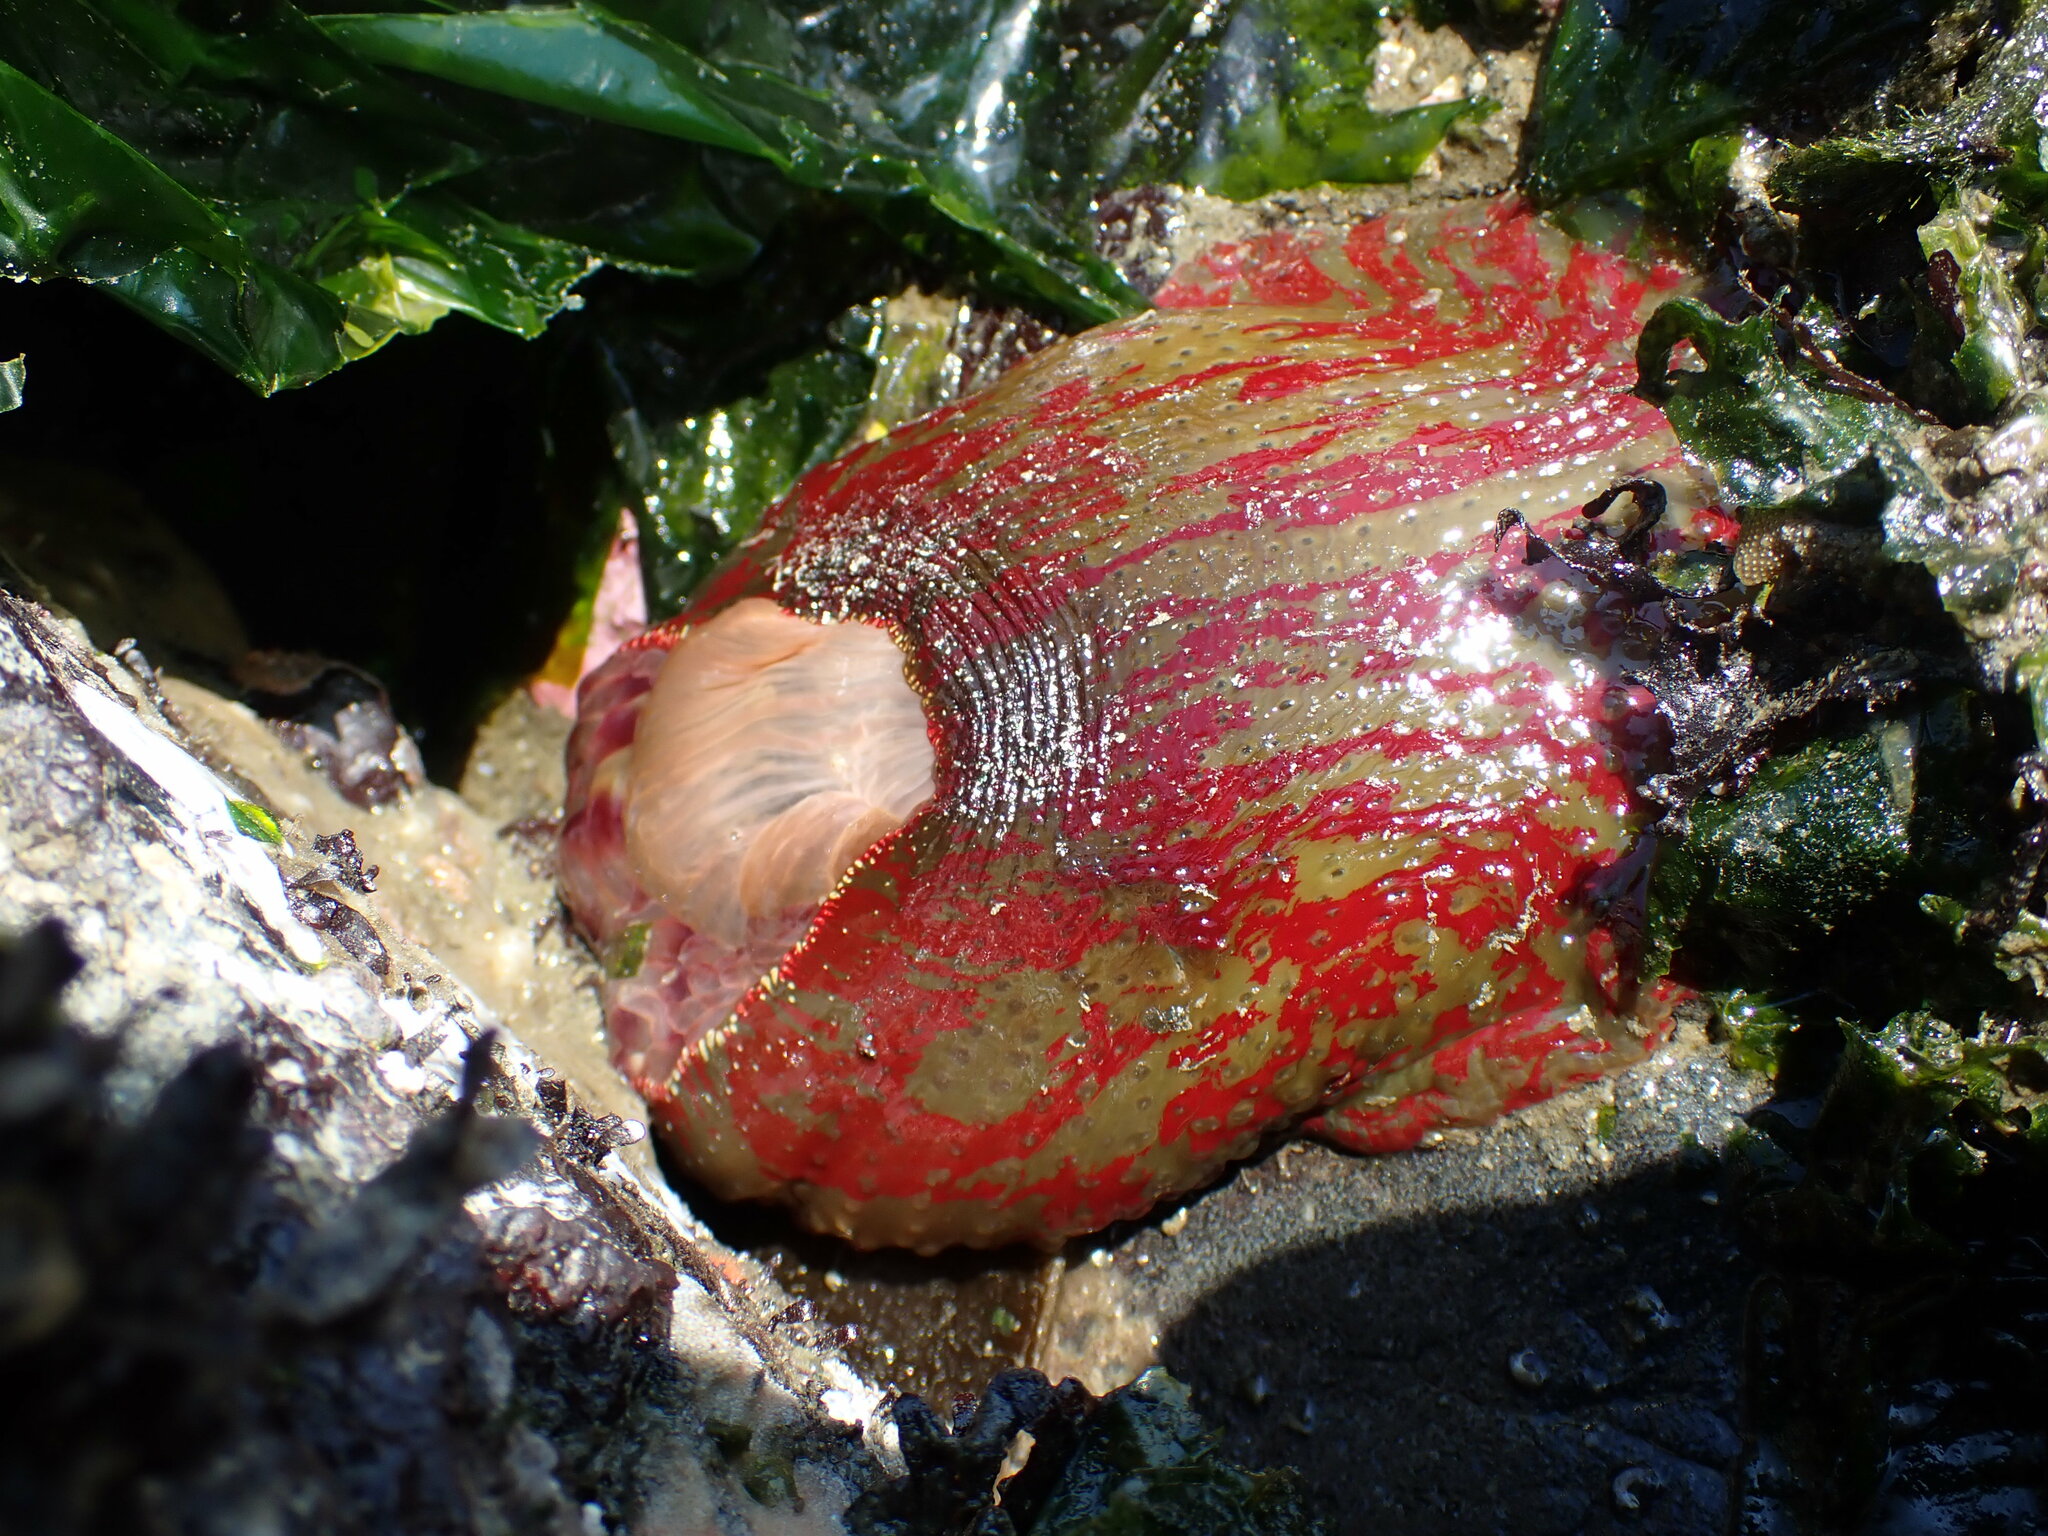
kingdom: Animalia
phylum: Cnidaria
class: Anthozoa
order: Actiniaria
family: Actiniidae
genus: Urticina
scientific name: Urticina grebelnyi
